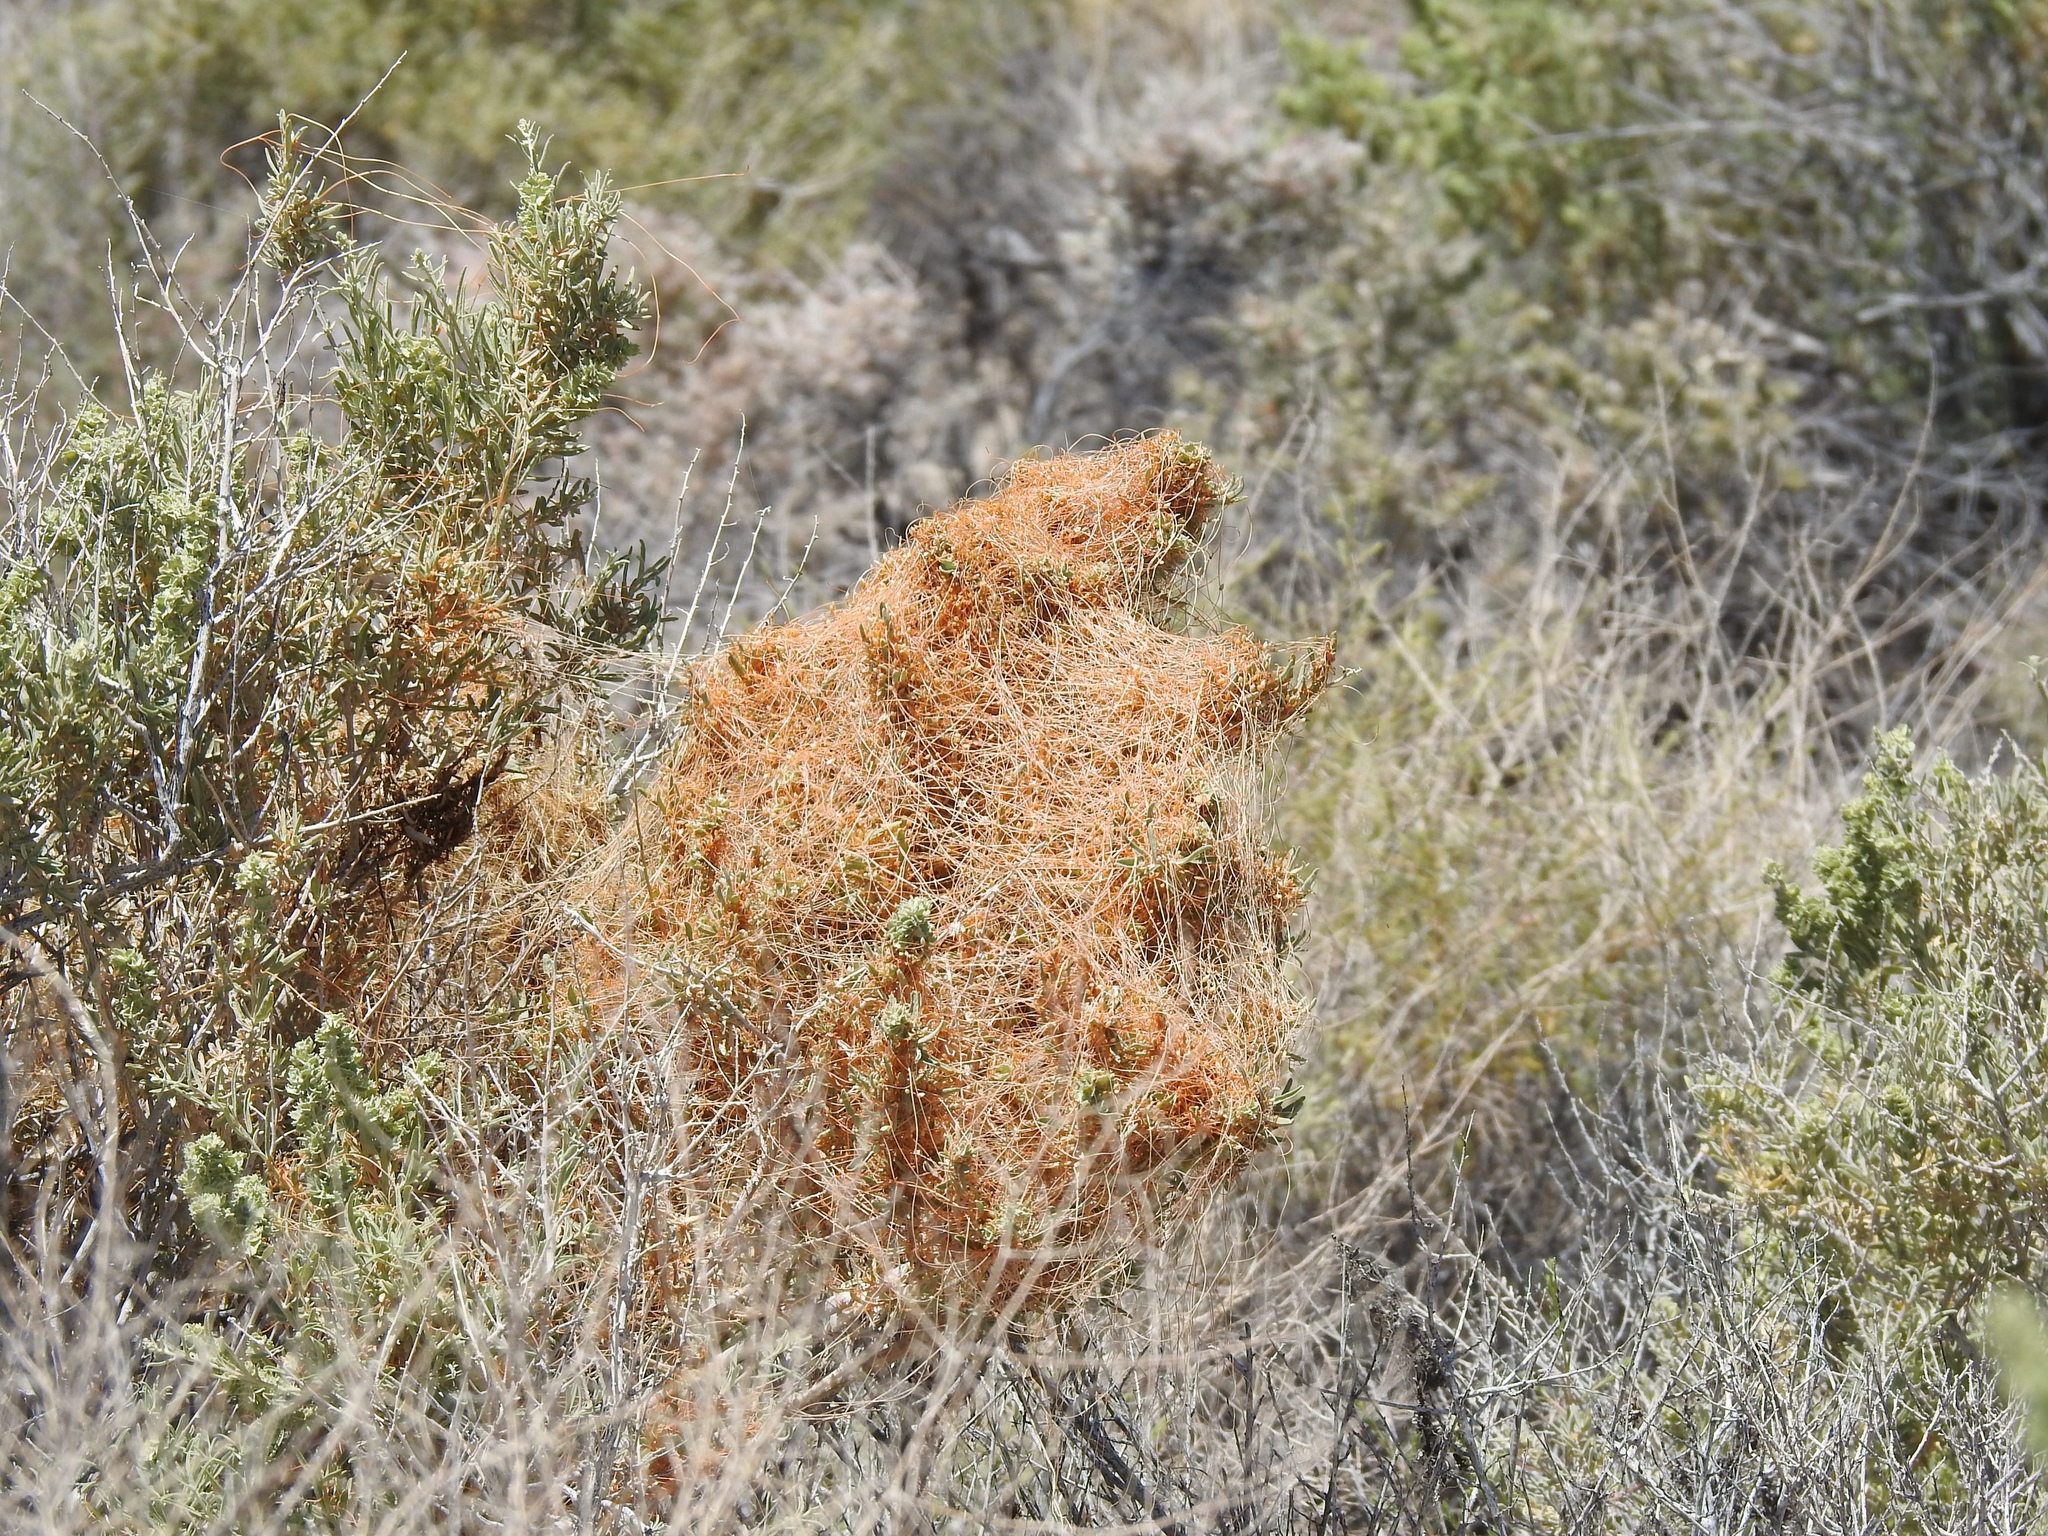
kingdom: Plantae
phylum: Tracheophyta
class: Magnoliopsida
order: Solanales
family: Convolvulaceae
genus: Cuscuta
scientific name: Cuscuta denticulata
